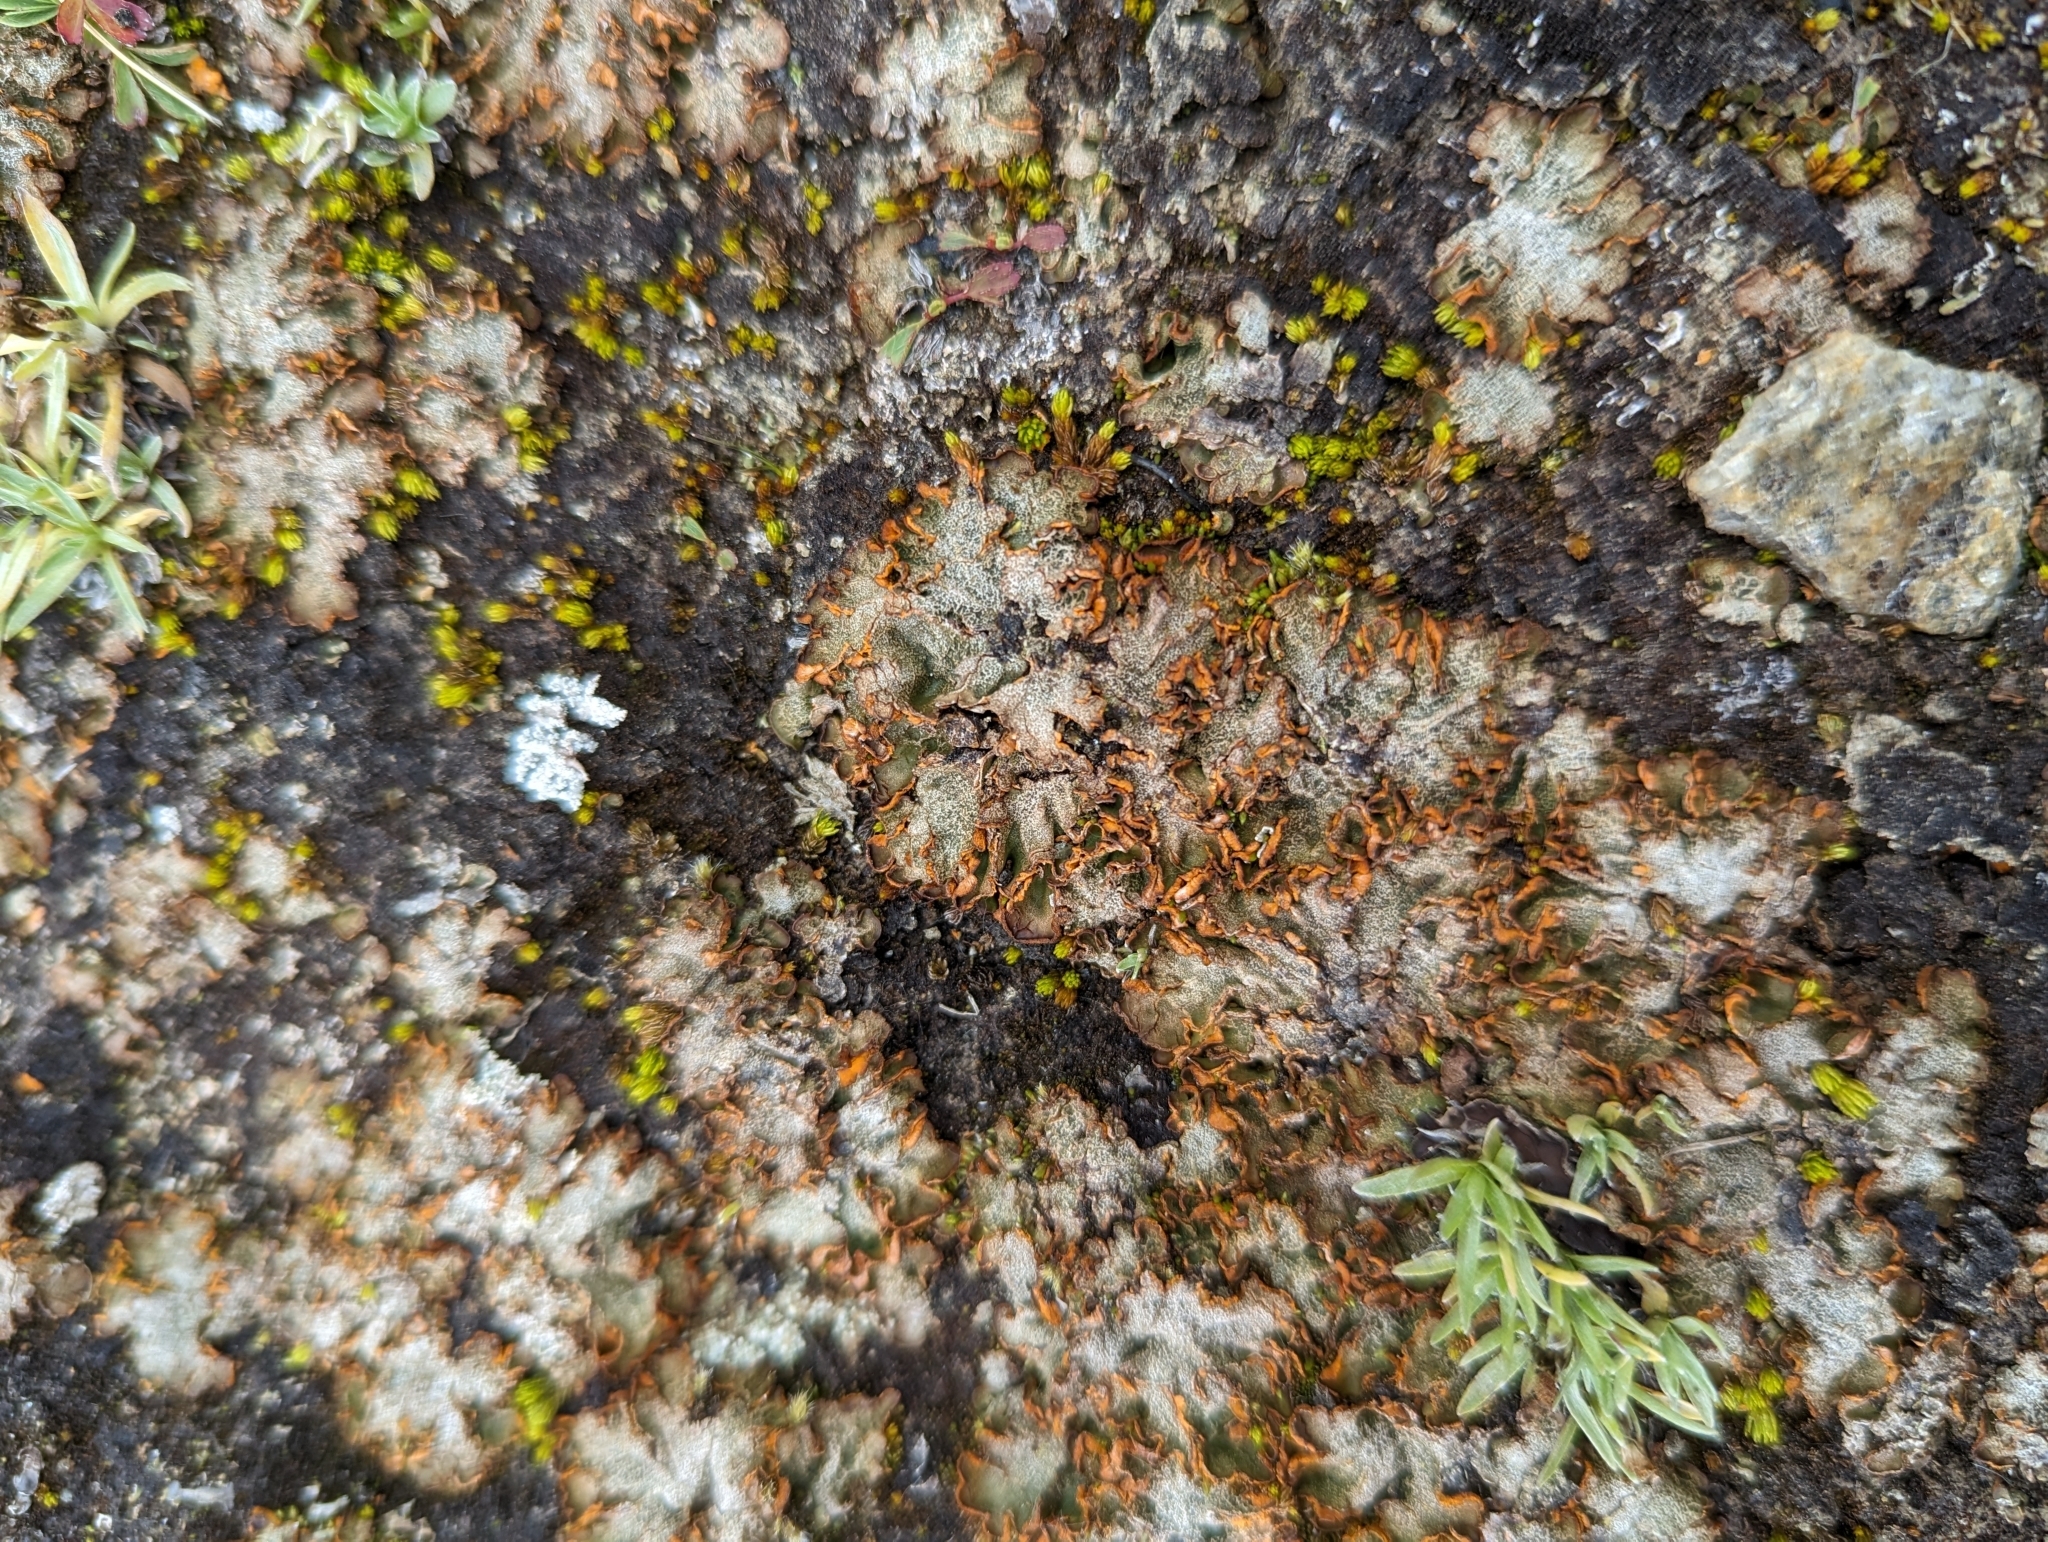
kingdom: Fungi
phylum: Ascomycota
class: Lecanoromycetes
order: Peltigerales
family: Peltigeraceae
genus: Solorina
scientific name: Solorina crocea
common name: Mountain saffron
